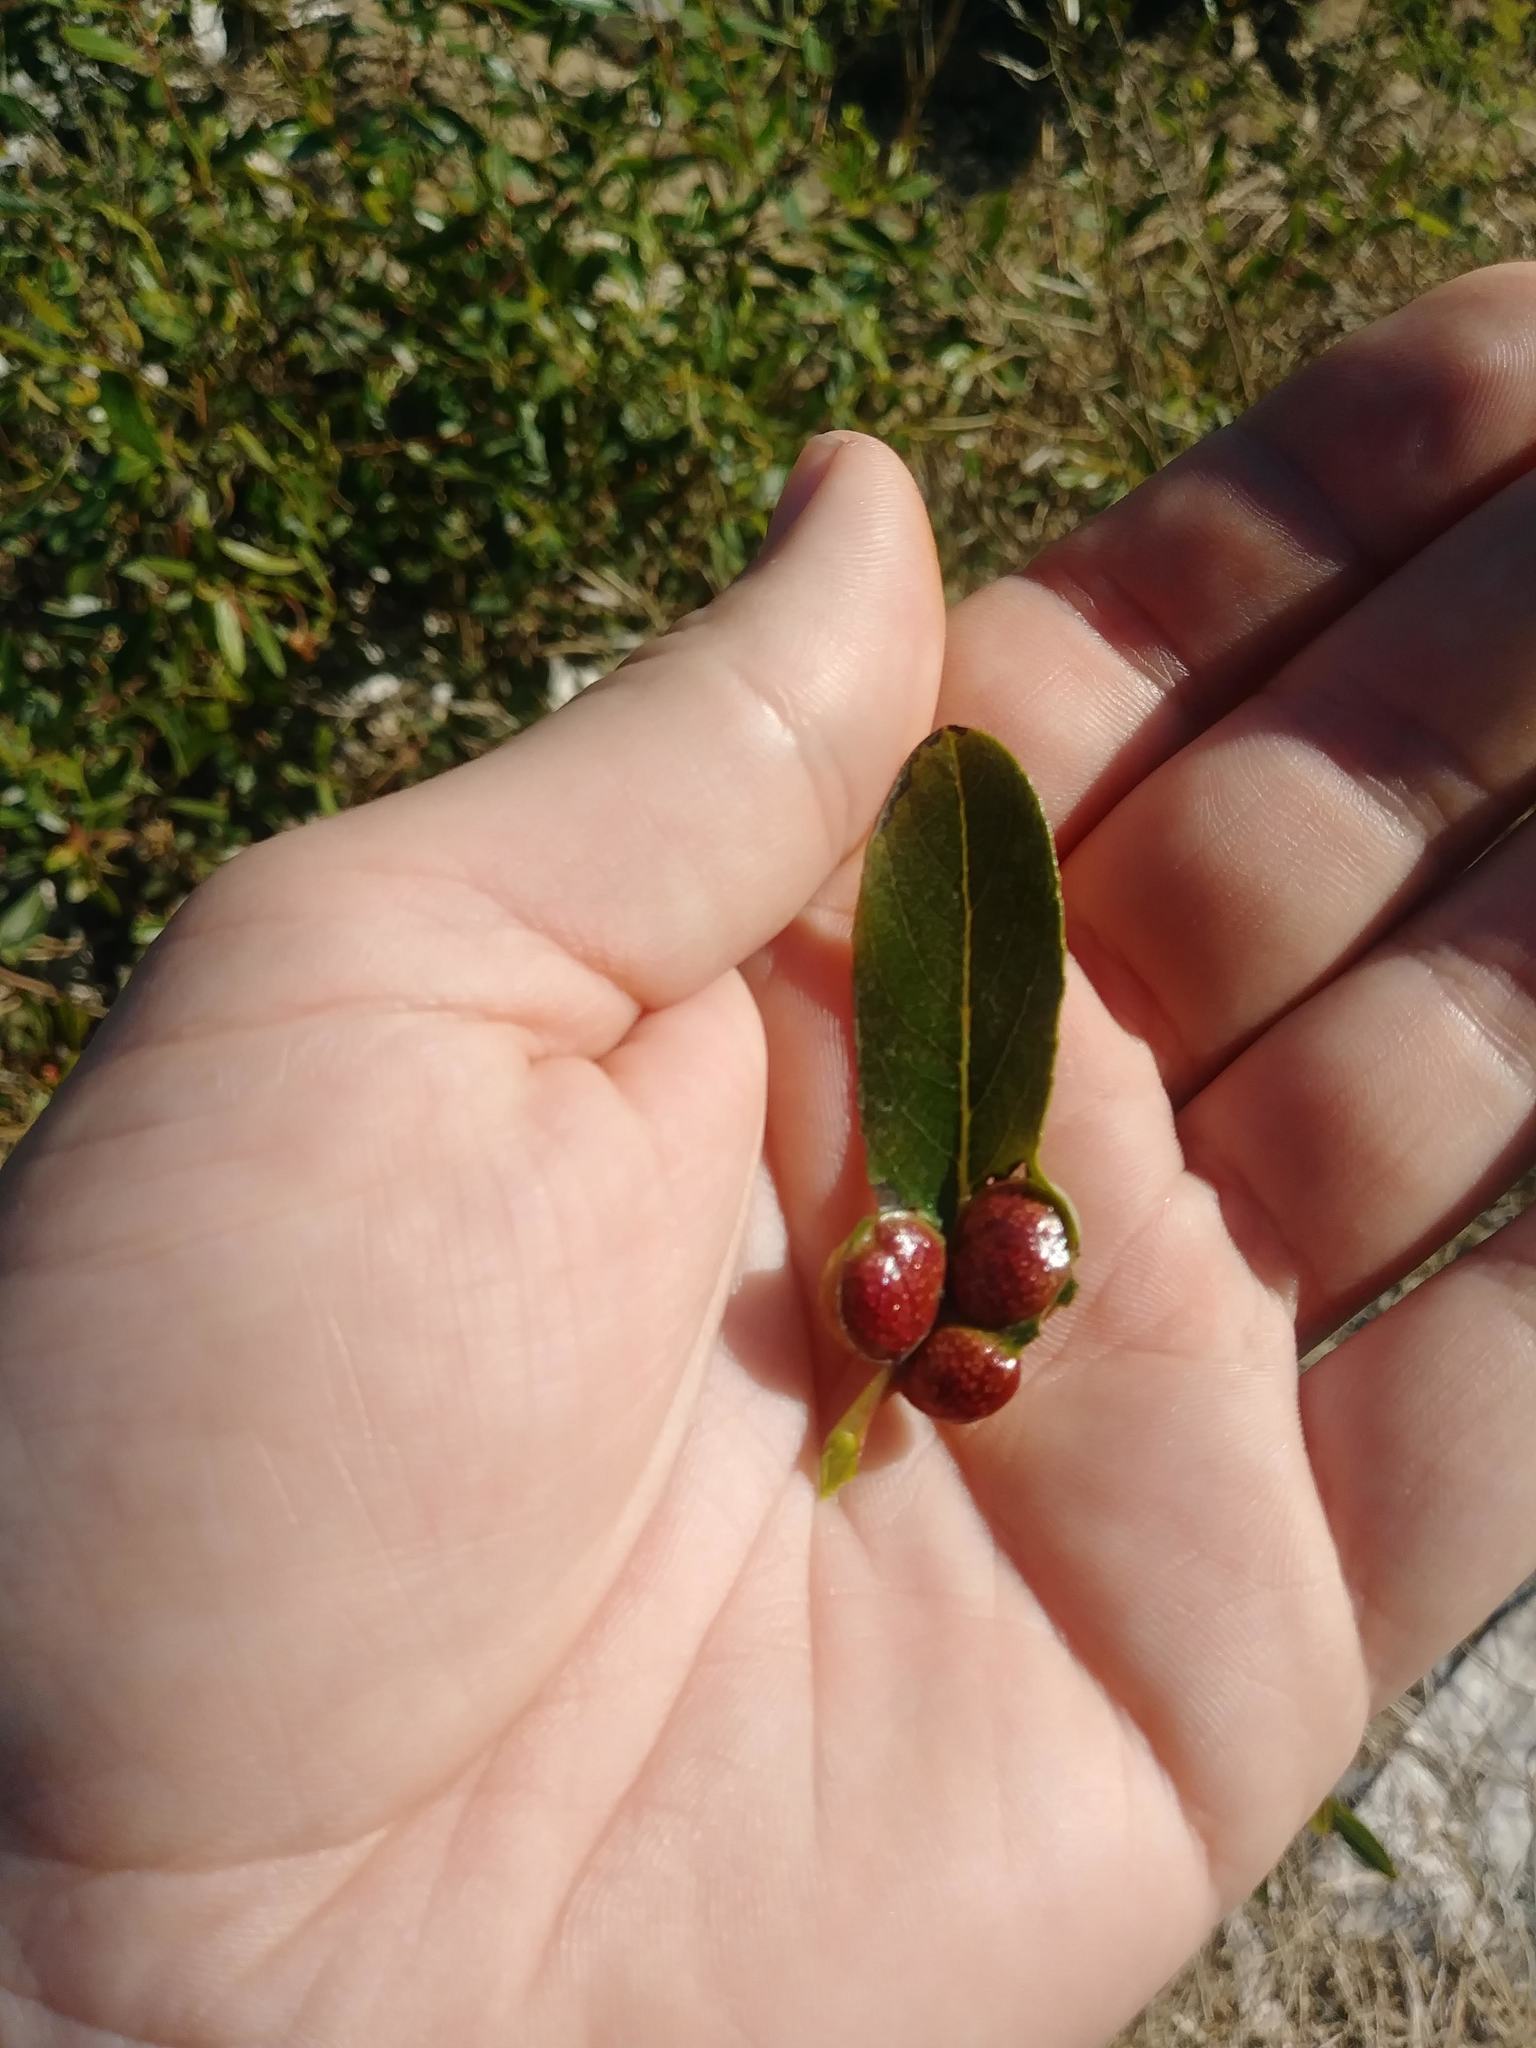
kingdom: Animalia
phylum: Arthropoda
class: Insecta
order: Hymenoptera
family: Tenthredinidae
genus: Euura
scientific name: Euura
